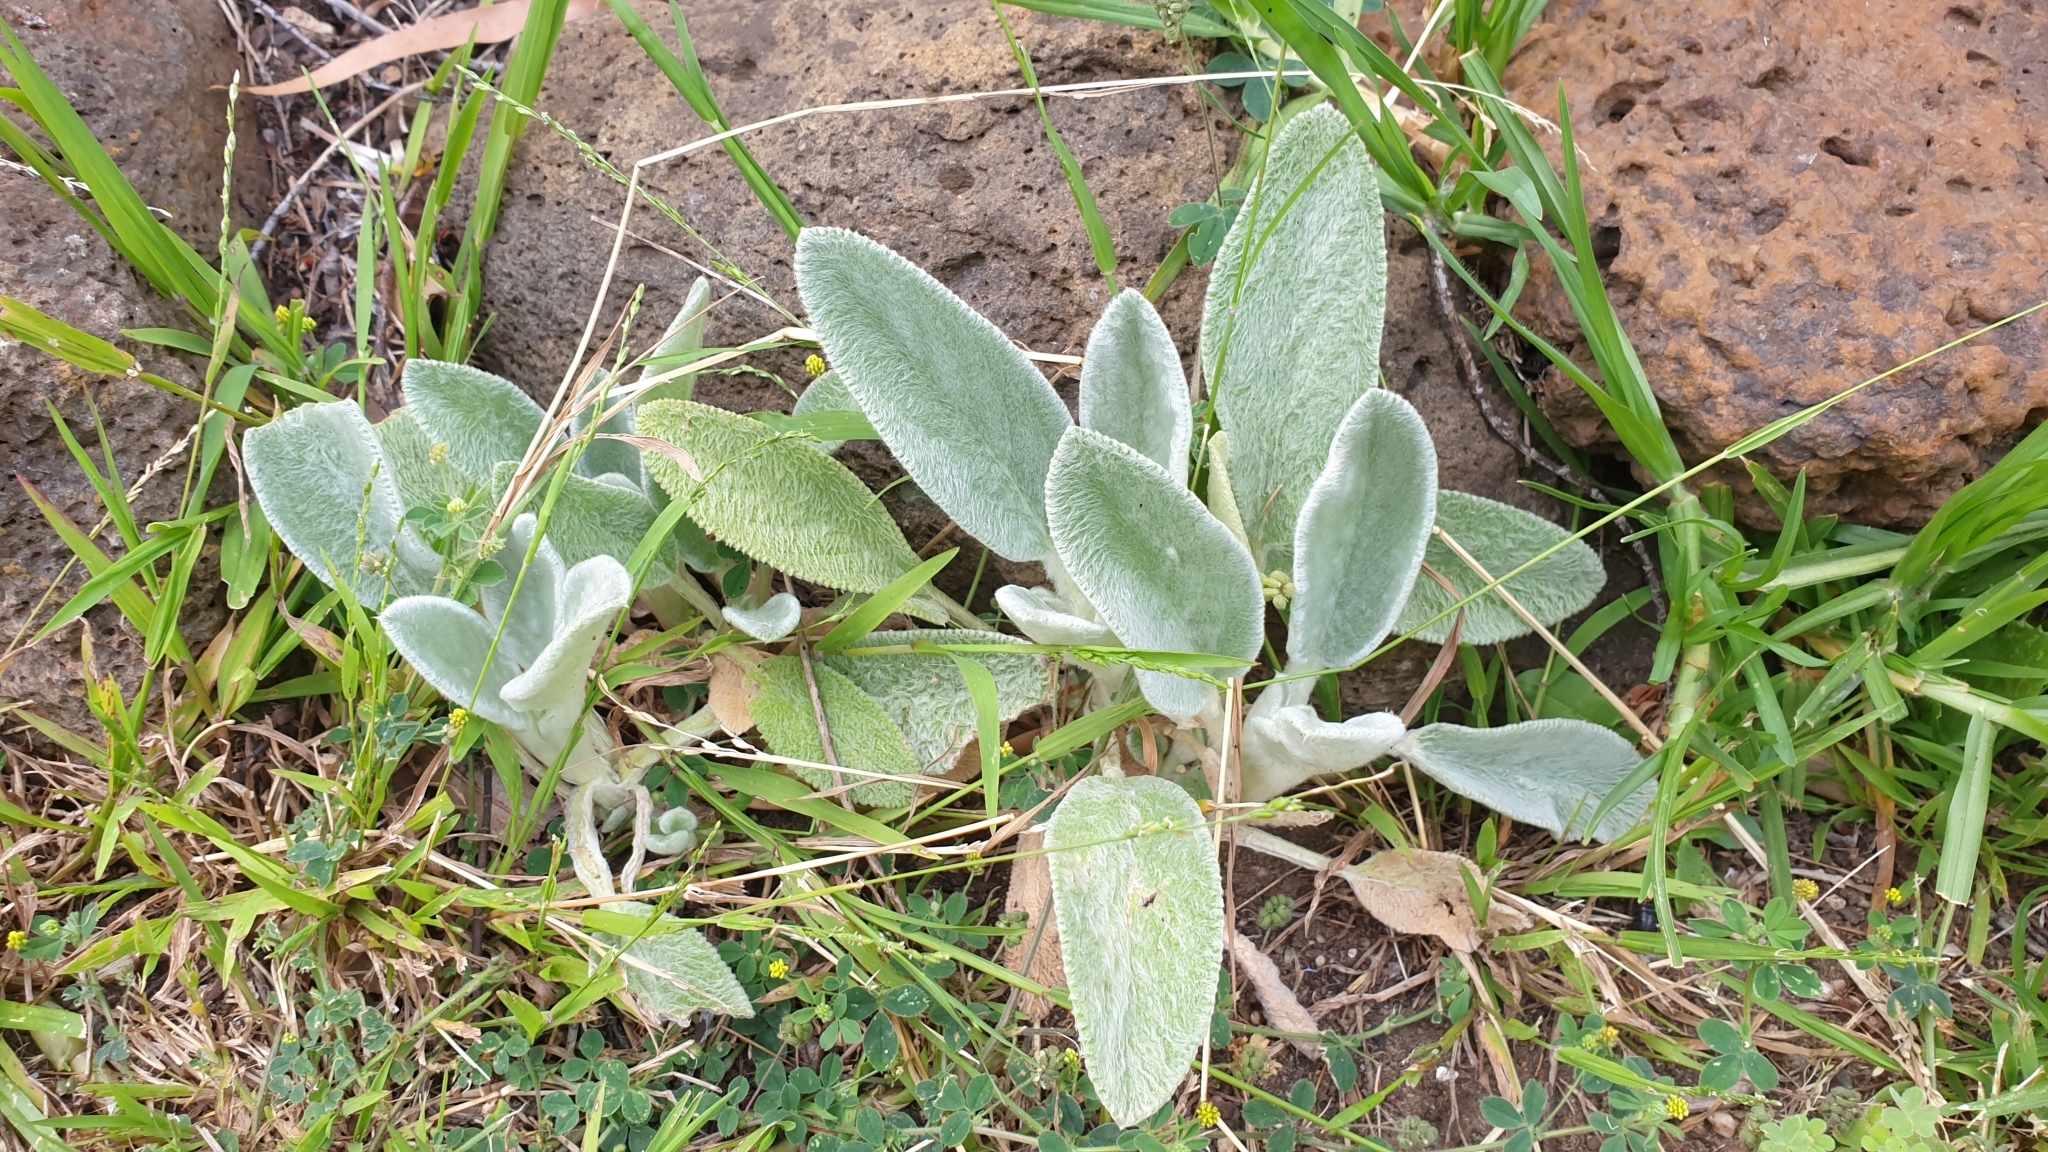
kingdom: Plantae
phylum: Tracheophyta
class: Magnoliopsida
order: Lamiales
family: Lamiaceae
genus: Stachys
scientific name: Stachys byzantina
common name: Lamb's-ear
